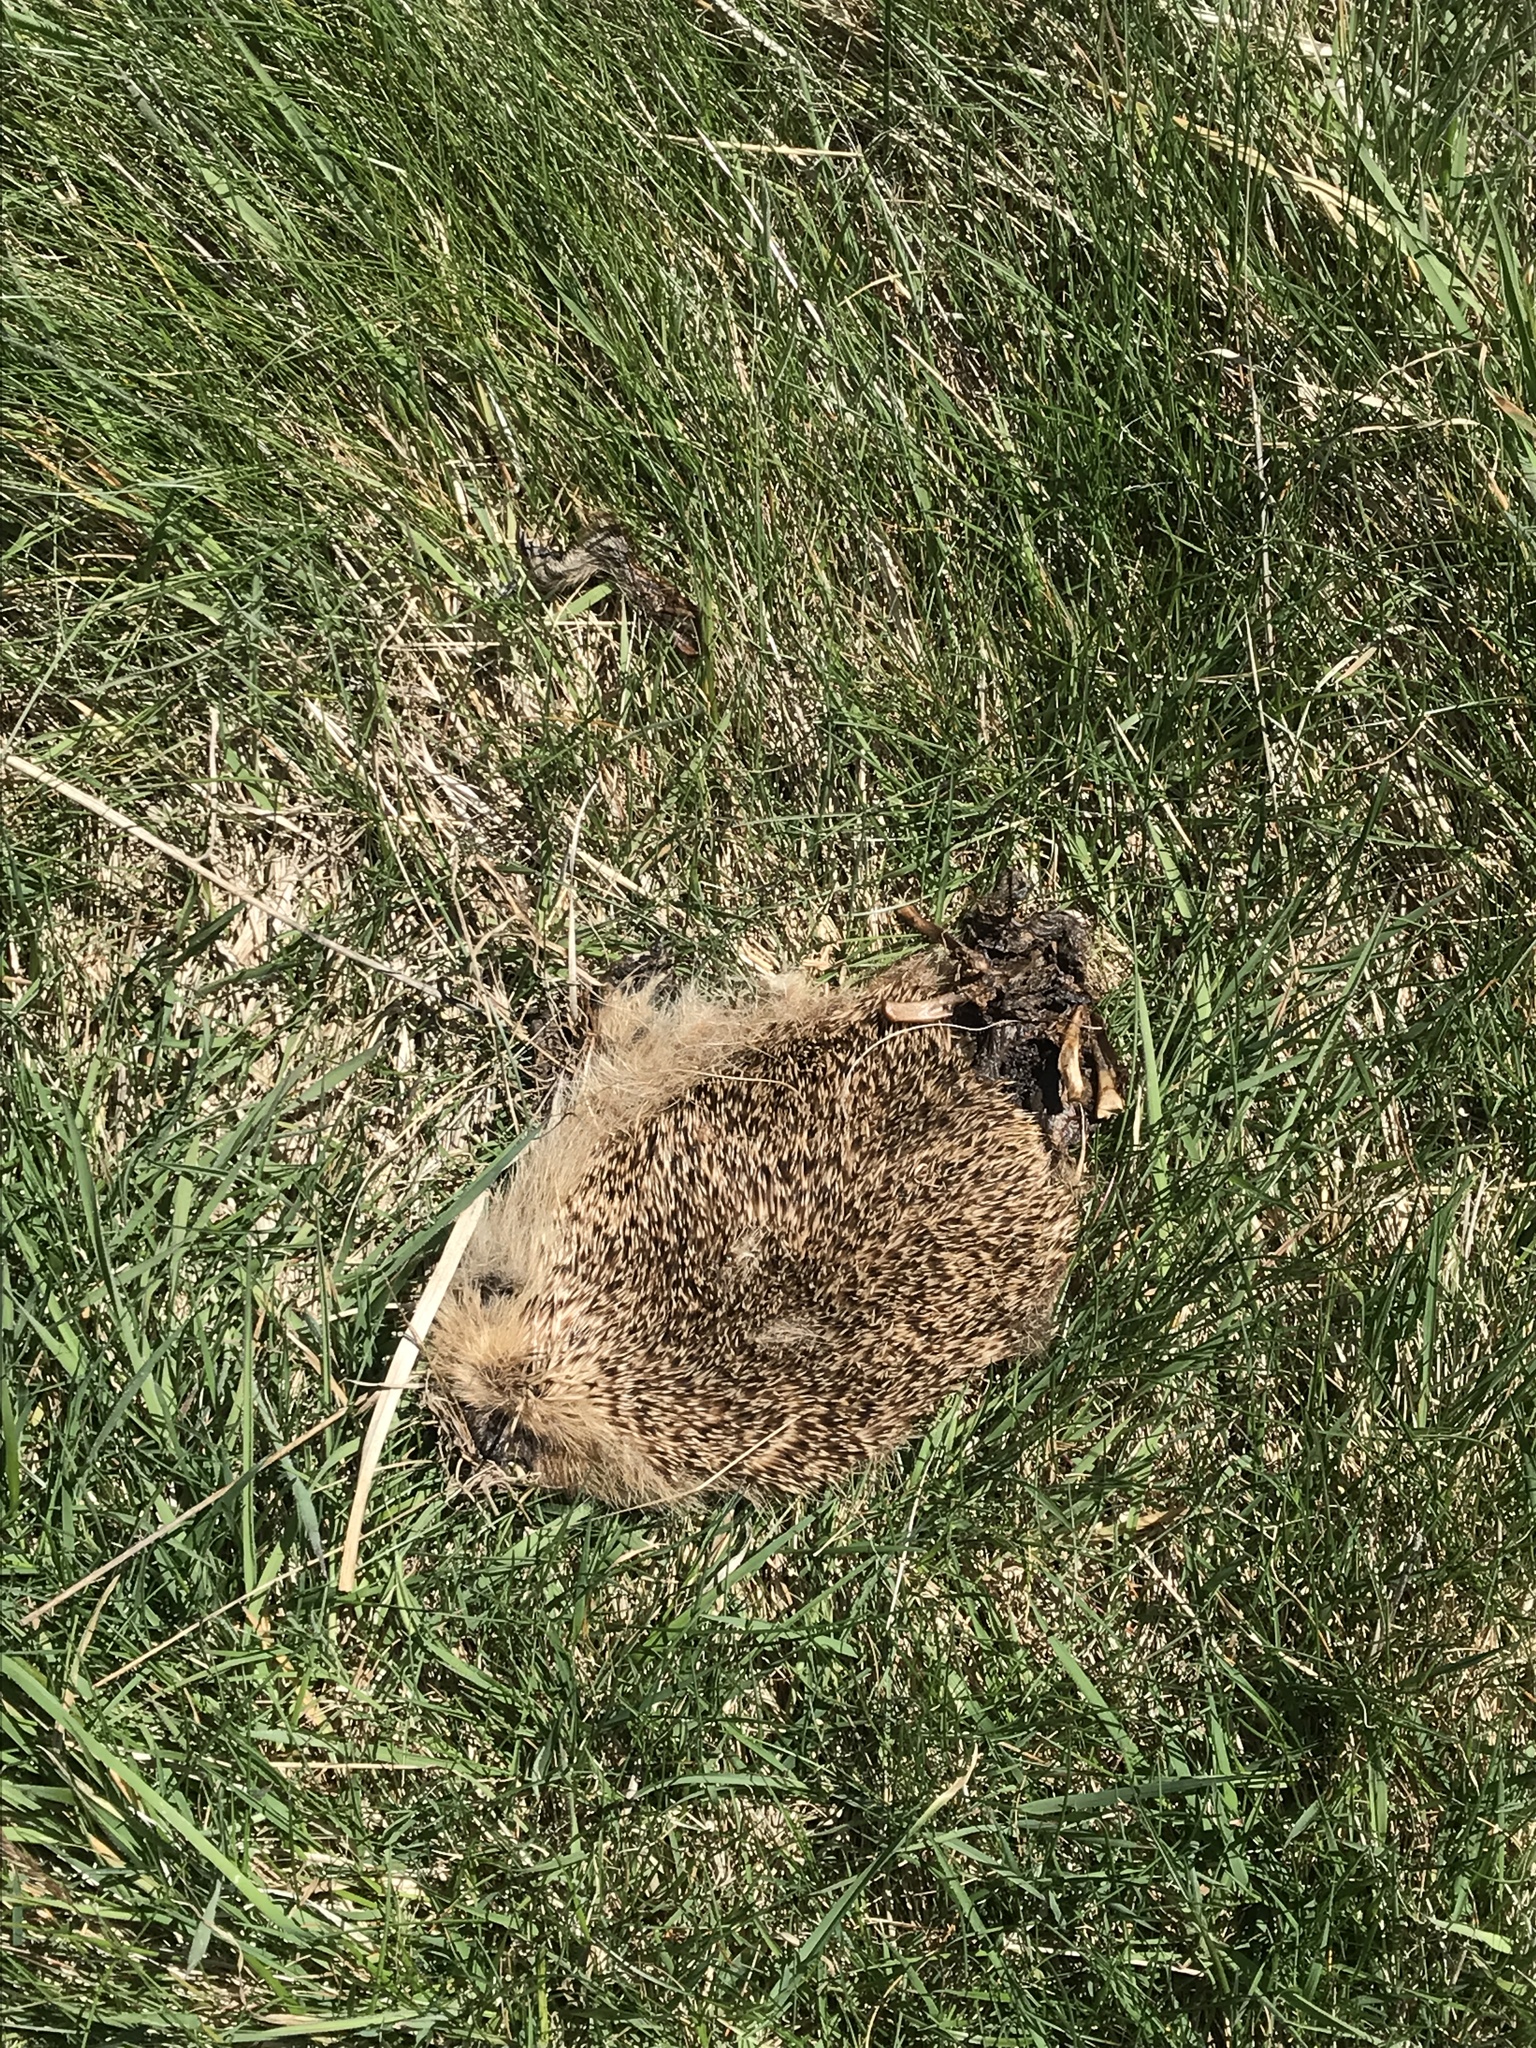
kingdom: Animalia
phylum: Chordata
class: Mammalia
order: Erinaceomorpha
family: Erinaceidae
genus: Erinaceus
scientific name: Erinaceus europaeus
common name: West european hedgehog
